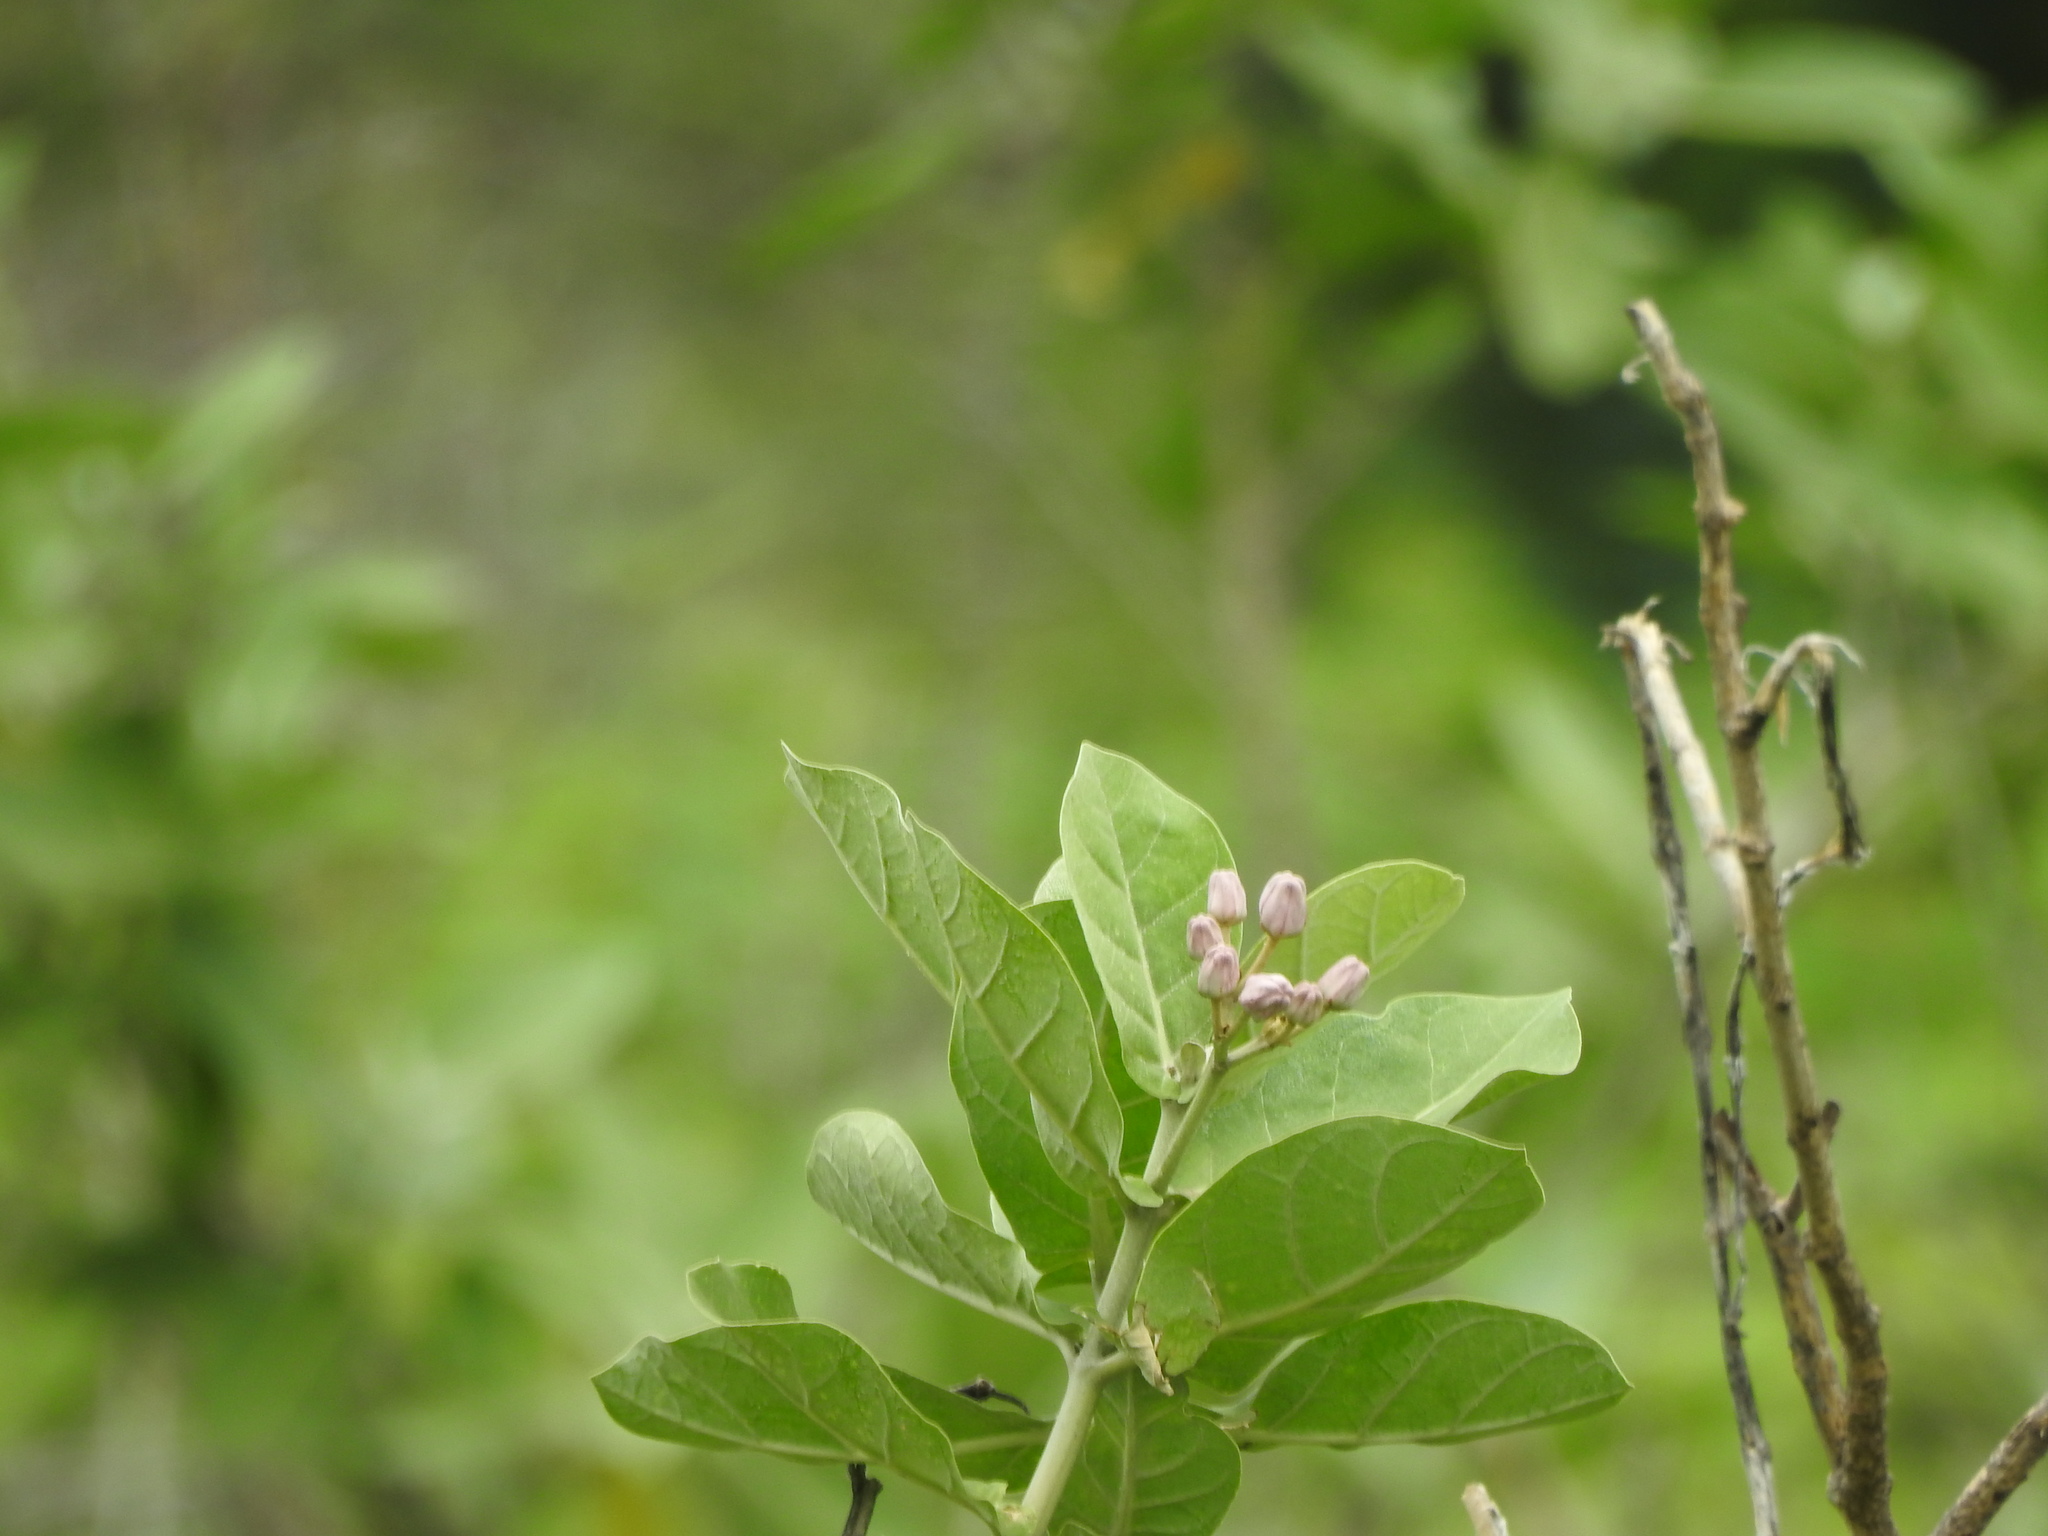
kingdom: Plantae
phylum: Tracheophyta
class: Magnoliopsida
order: Gentianales
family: Apocynaceae
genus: Calotropis
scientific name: Calotropis gigantea
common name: Crown flower
